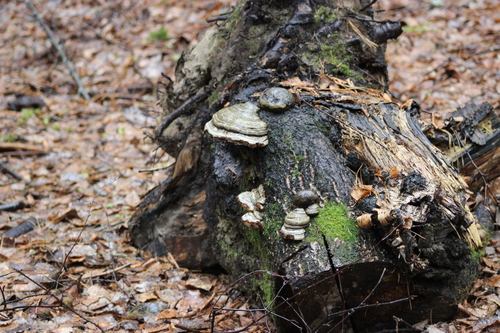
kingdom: Fungi
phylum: Basidiomycota
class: Agaricomycetes
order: Polyporales
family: Polyporaceae
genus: Fomes
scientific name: Fomes fomentarius
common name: Hoof fungus
